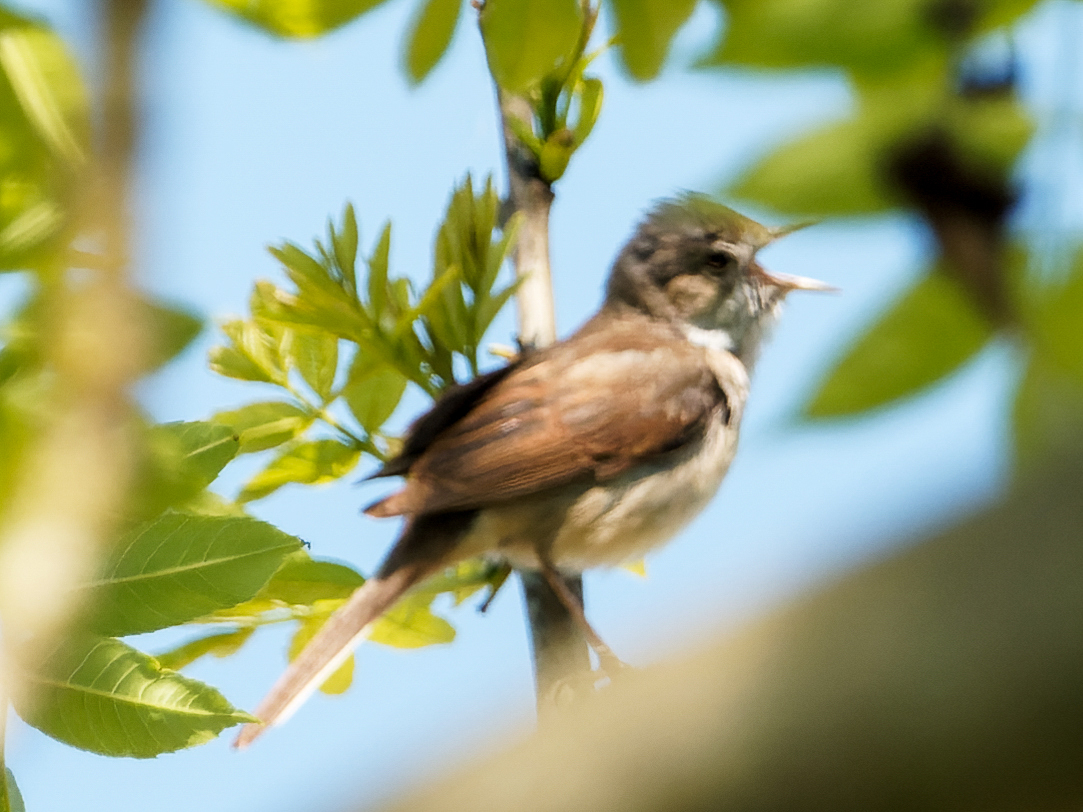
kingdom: Animalia
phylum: Chordata
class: Aves
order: Passeriformes
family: Sylviidae
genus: Sylvia
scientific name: Sylvia communis
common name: Common whitethroat
